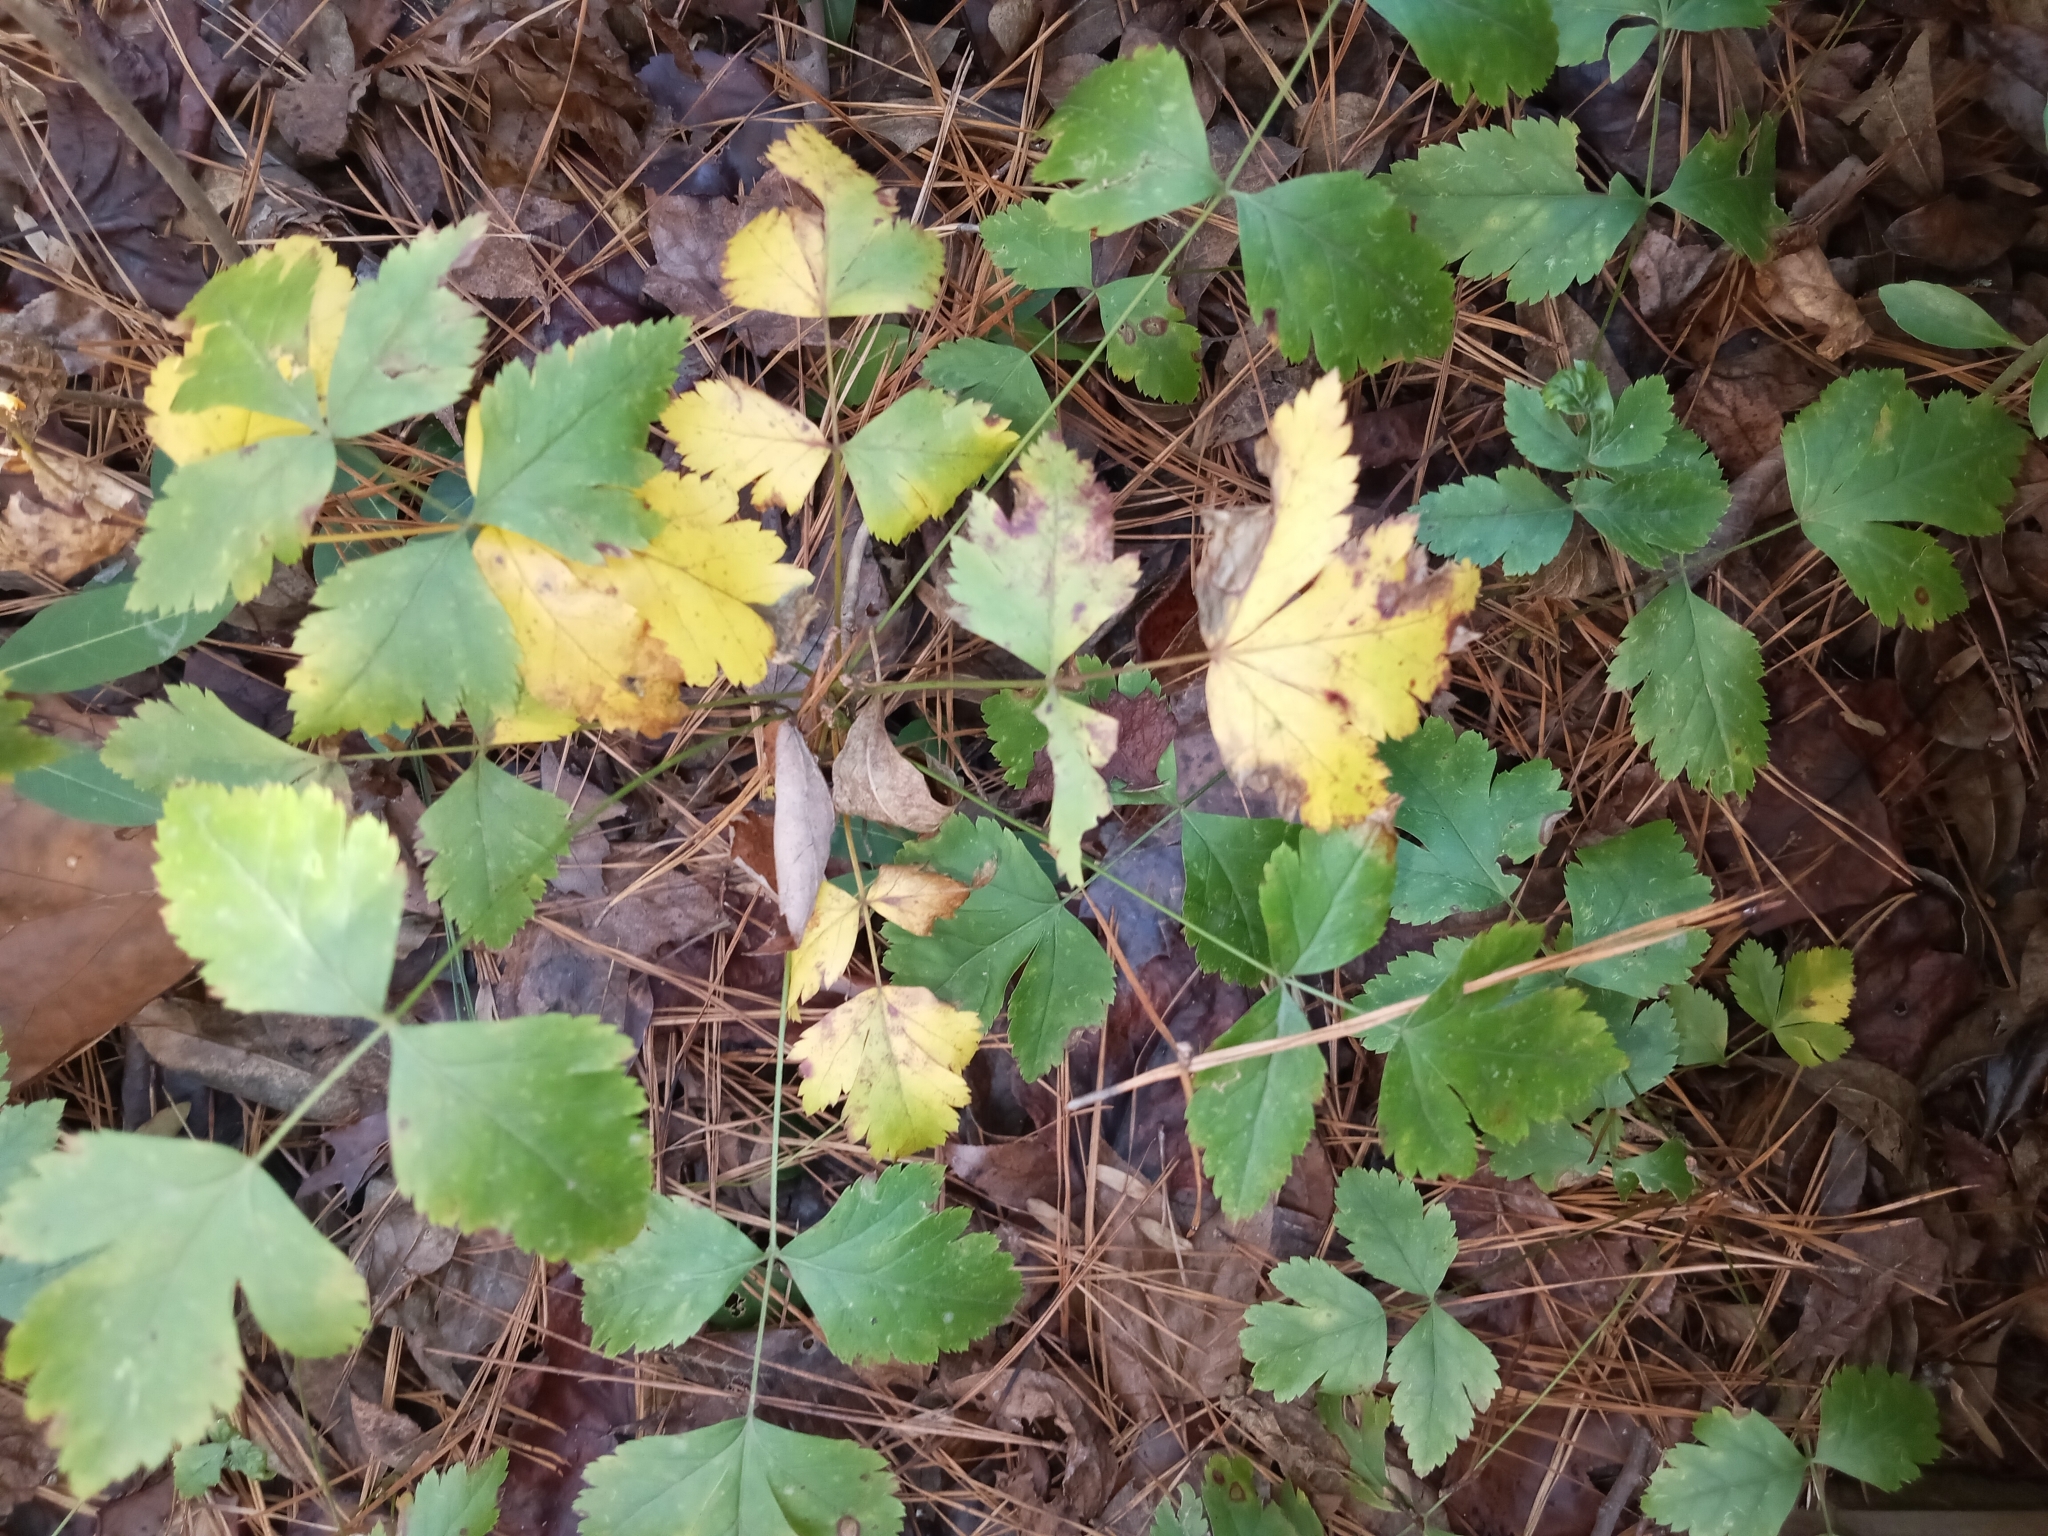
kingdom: Plantae
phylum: Tracheophyta
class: Magnoliopsida
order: Ranunculales
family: Ranunculaceae
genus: Xanthorhiza
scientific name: Xanthorhiza simplicissima
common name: Yellowroot
